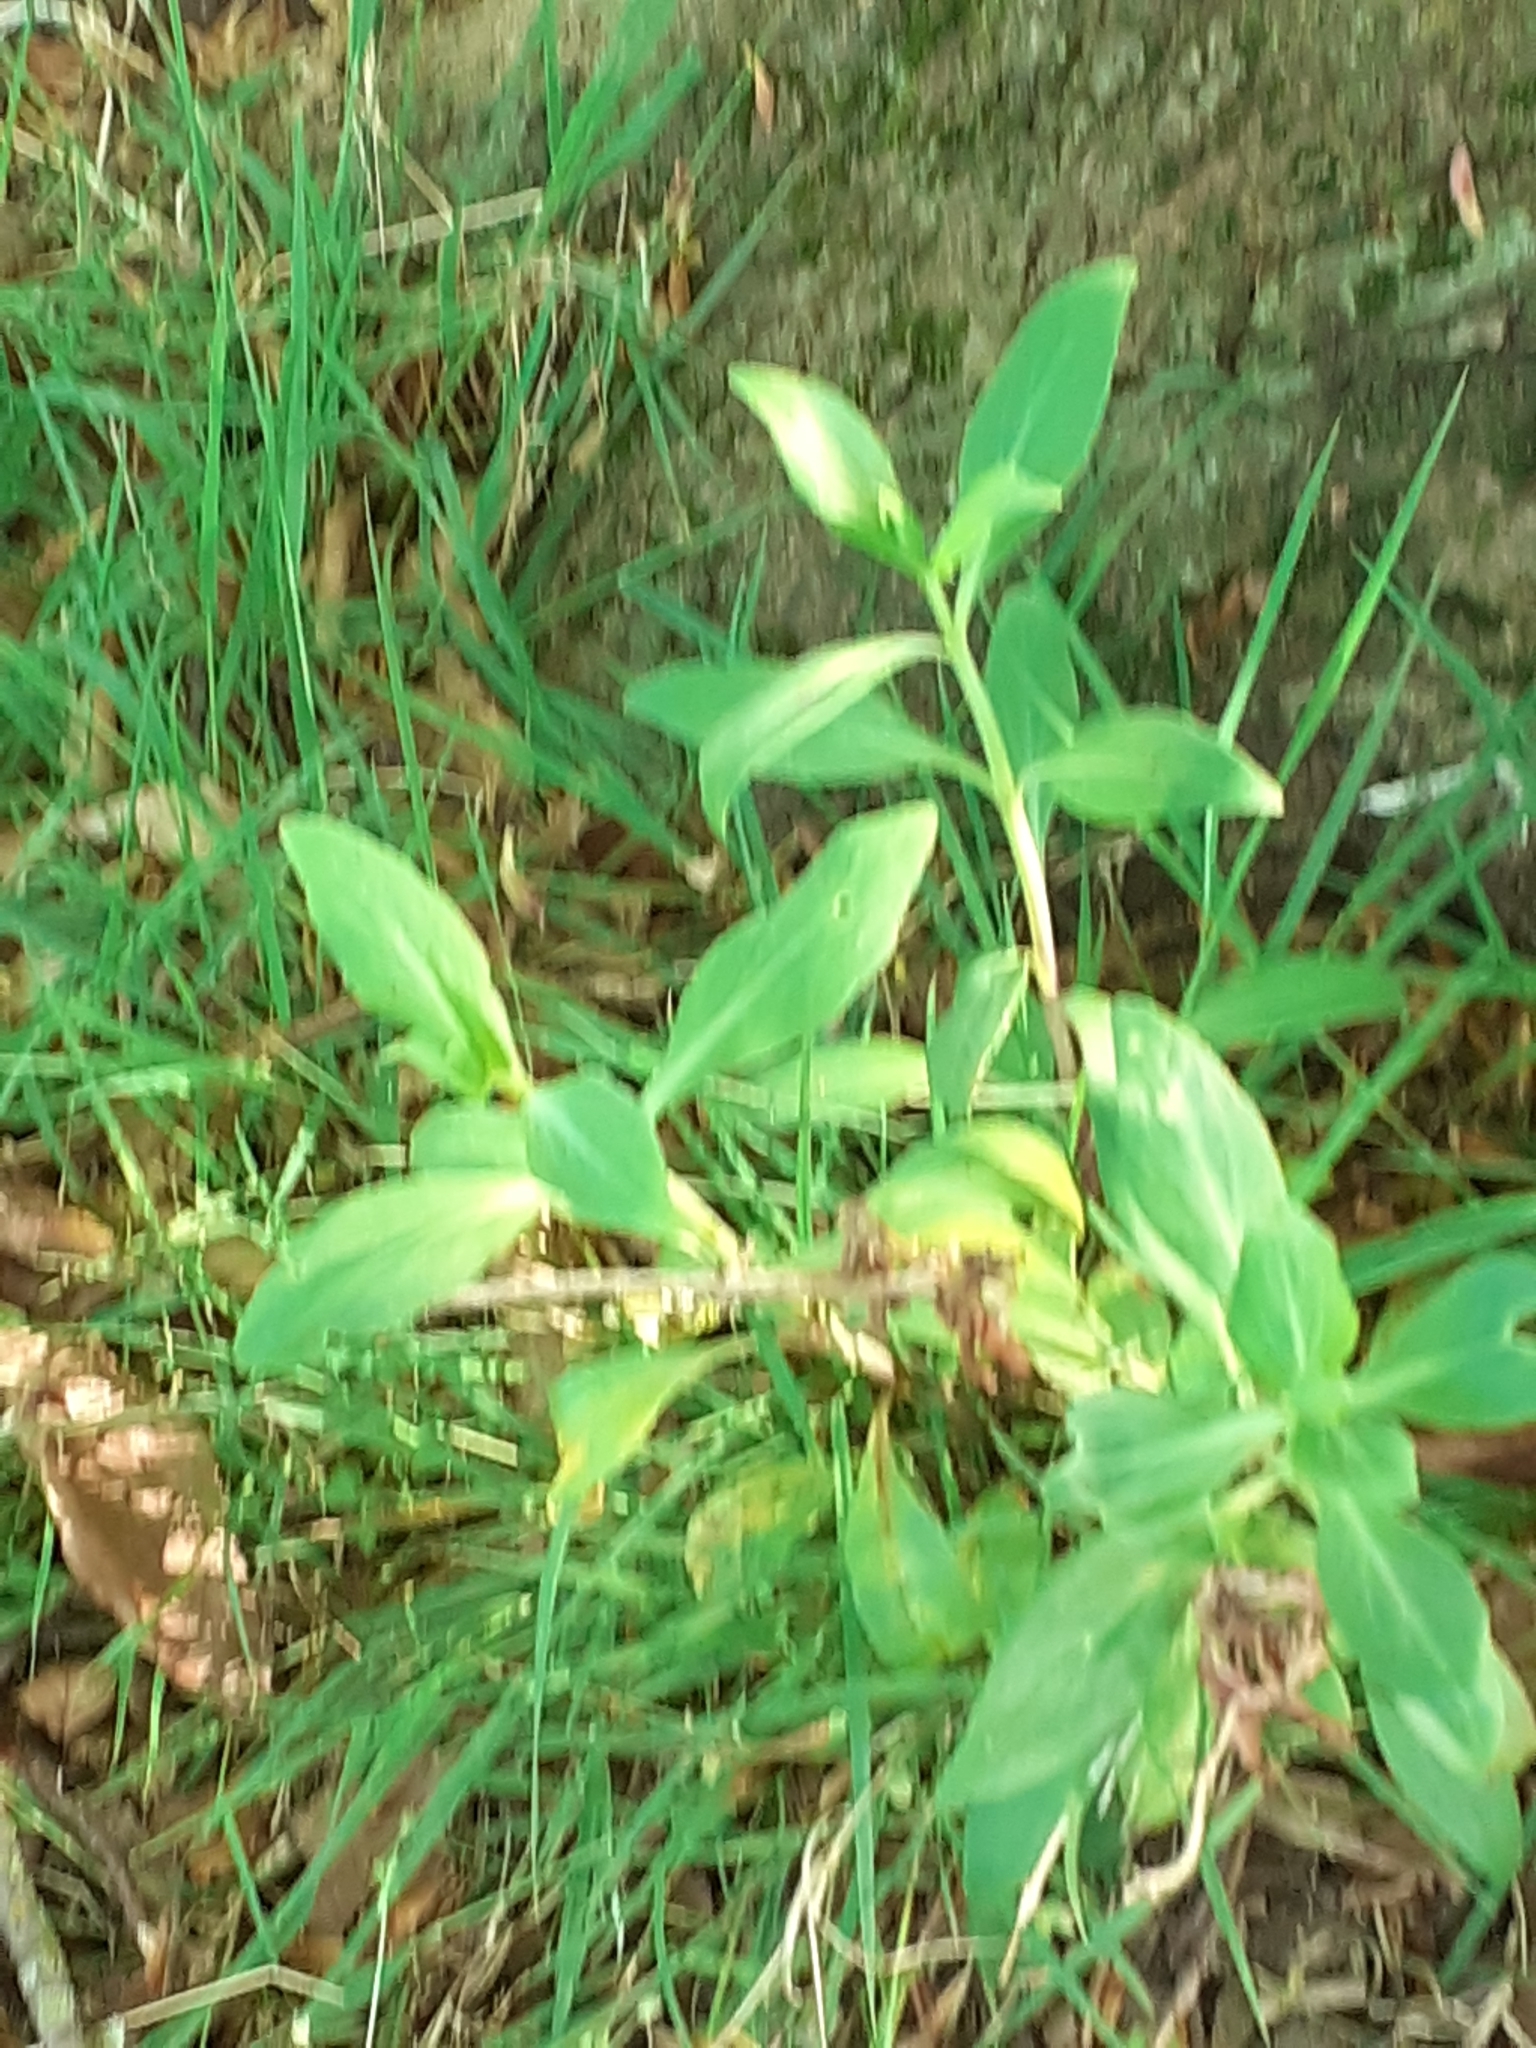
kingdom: Plantae
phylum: Tracheophyta
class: Magnoliopsida
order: Dipsacales
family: Caprifoliaceae
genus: Centranthus
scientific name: Centranthus ruber
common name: Red valerian
